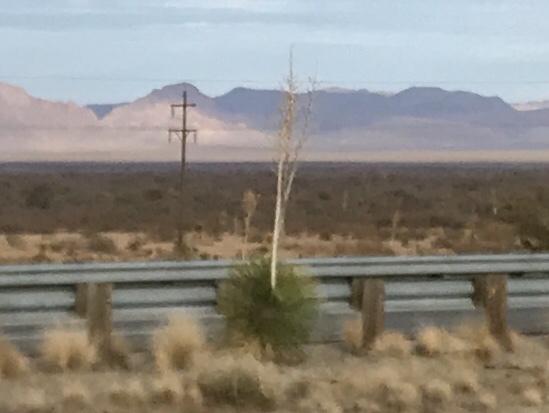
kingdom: Plantae
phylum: Tracheophyta
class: Liliopsida
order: Asparagales
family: Asparagaceae
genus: Yucca
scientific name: Yucca elata
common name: Palmella
